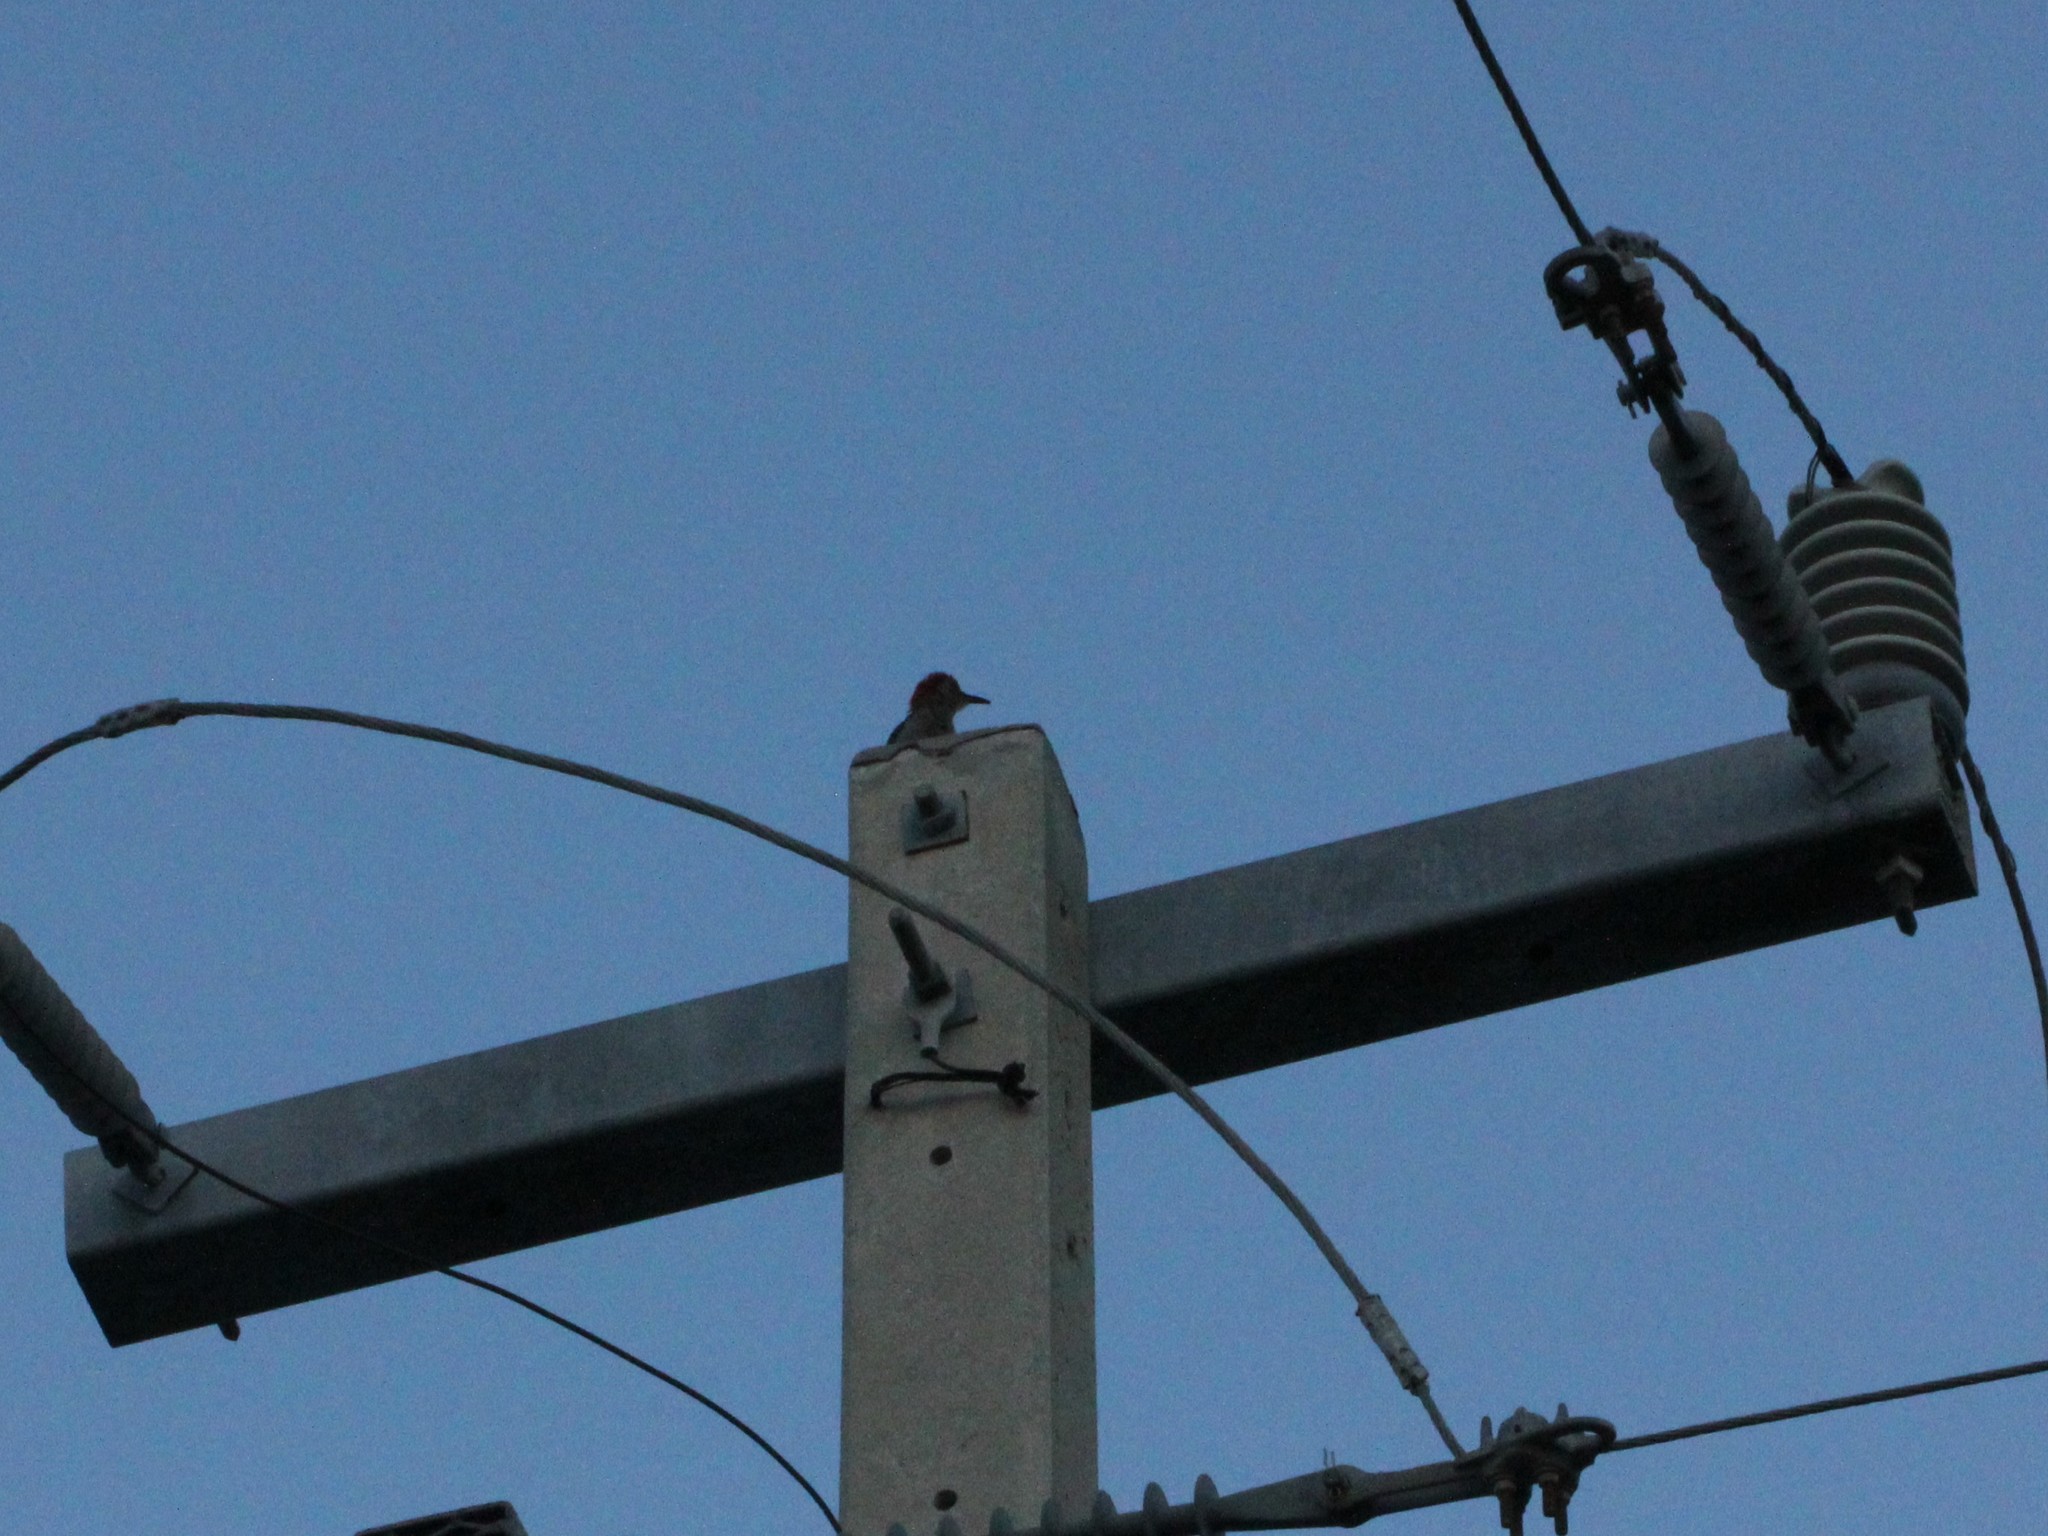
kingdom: Animalia
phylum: Chordata
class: Aves
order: Piciformes
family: Picidae
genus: Melanerpes
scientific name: Melanerpes carolinus
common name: Red-bellied woodpecker
